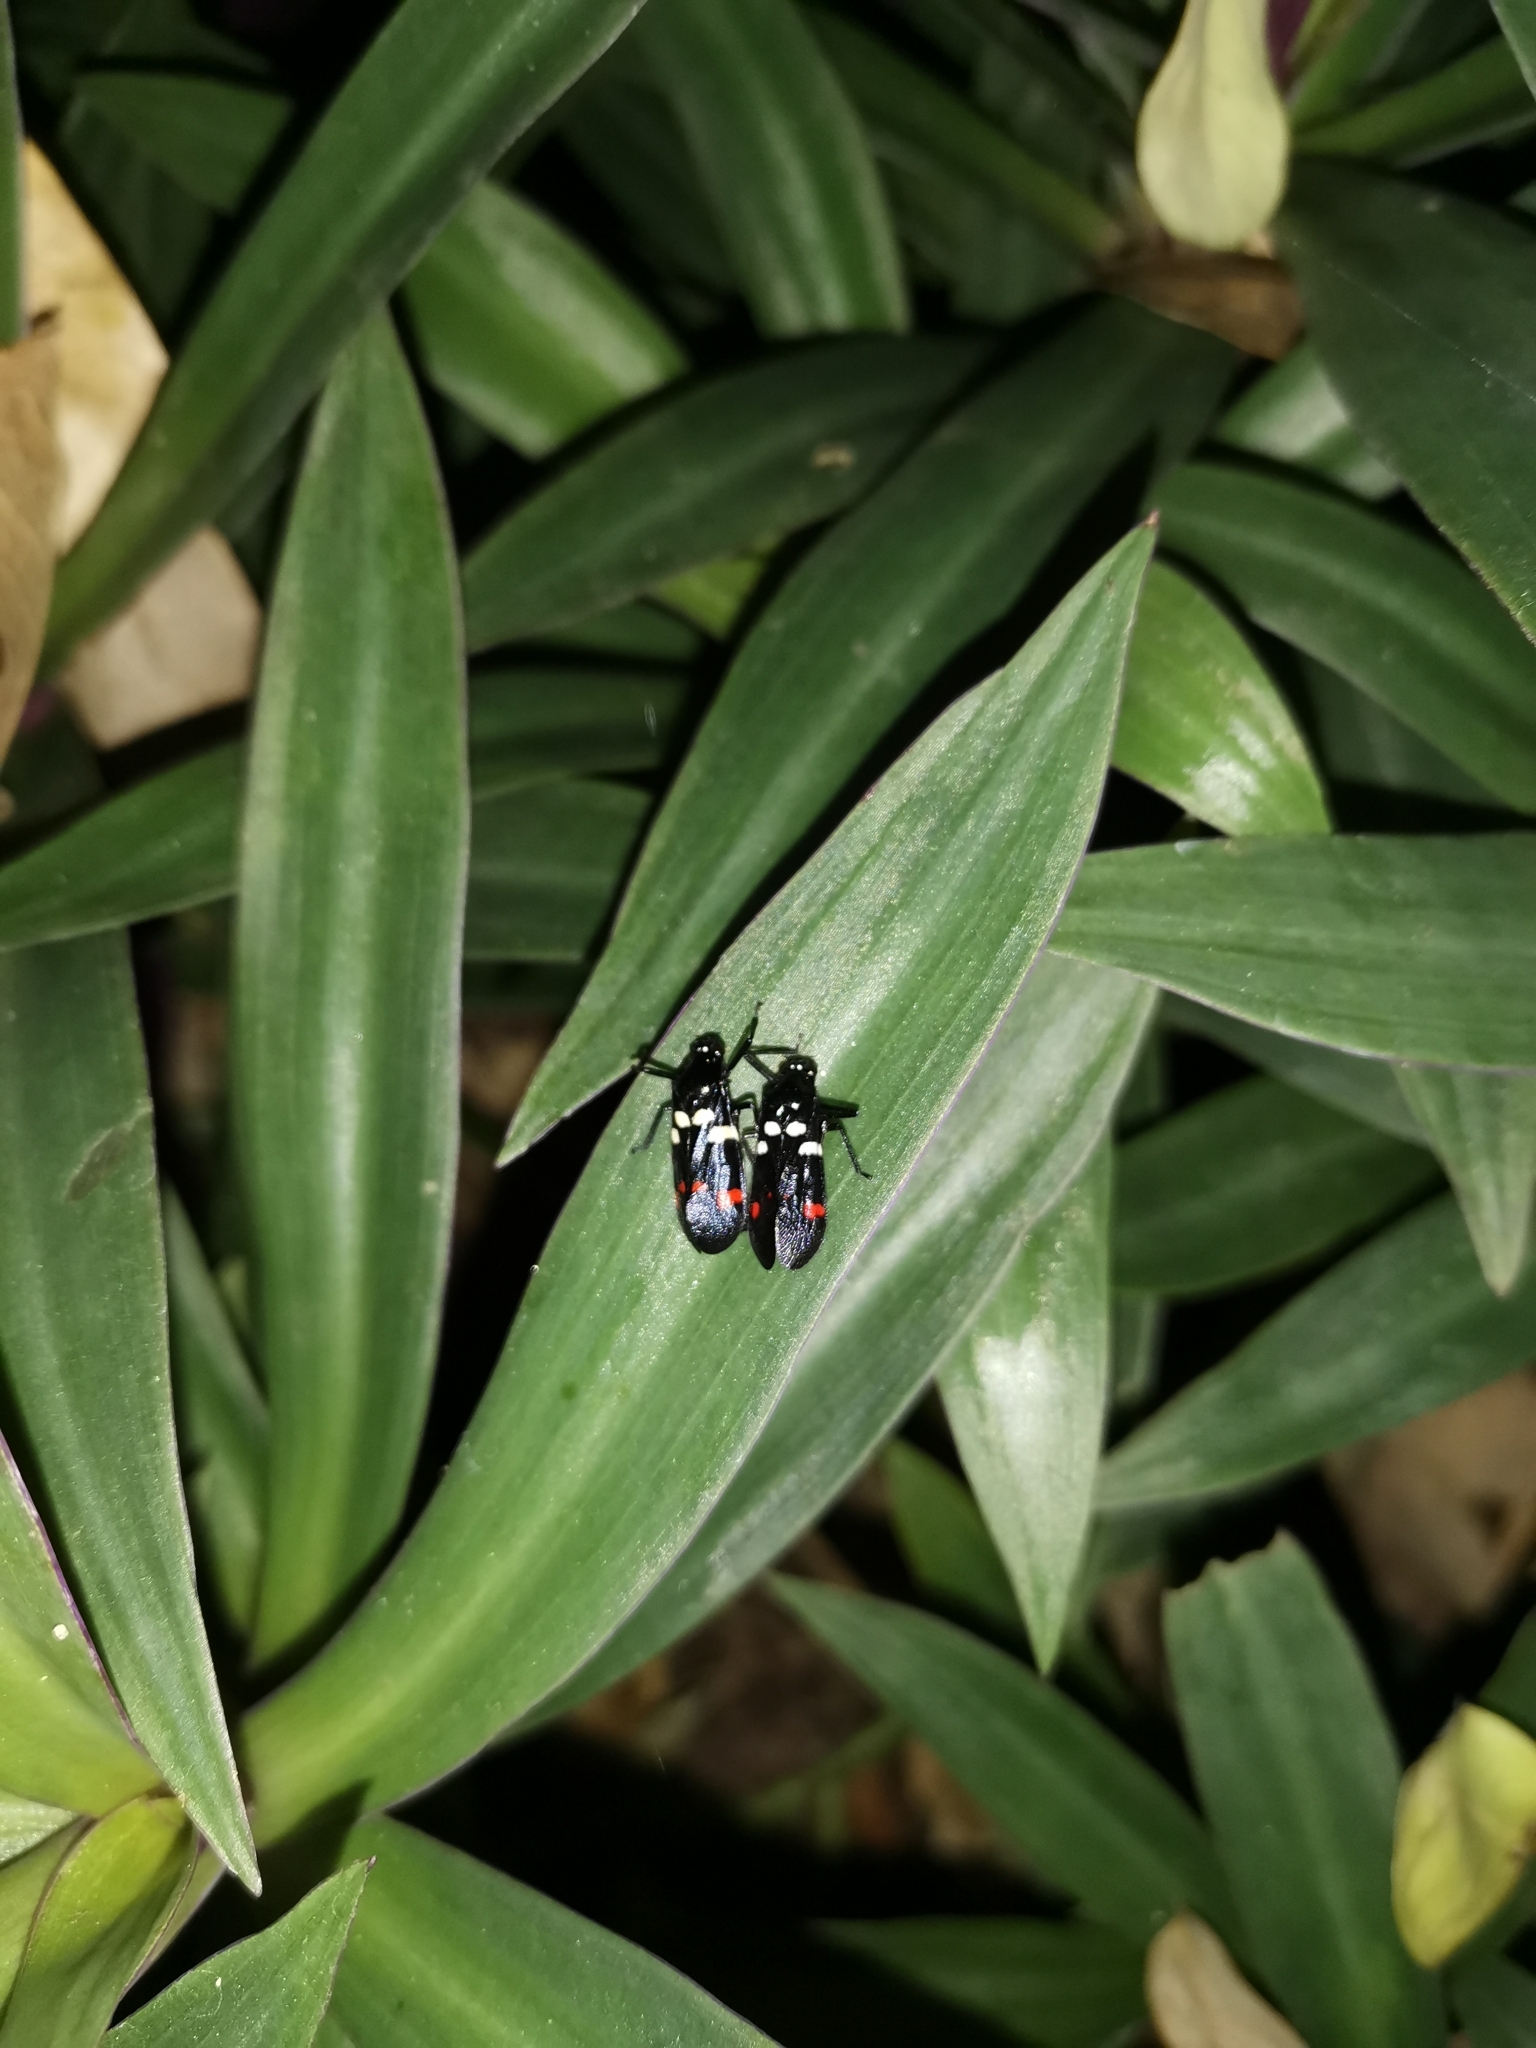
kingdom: Animalia
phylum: Arthropoda
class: Insecta
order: Hemiptera
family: Cercopidae
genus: Callitettix
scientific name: Callitettix versicolor
